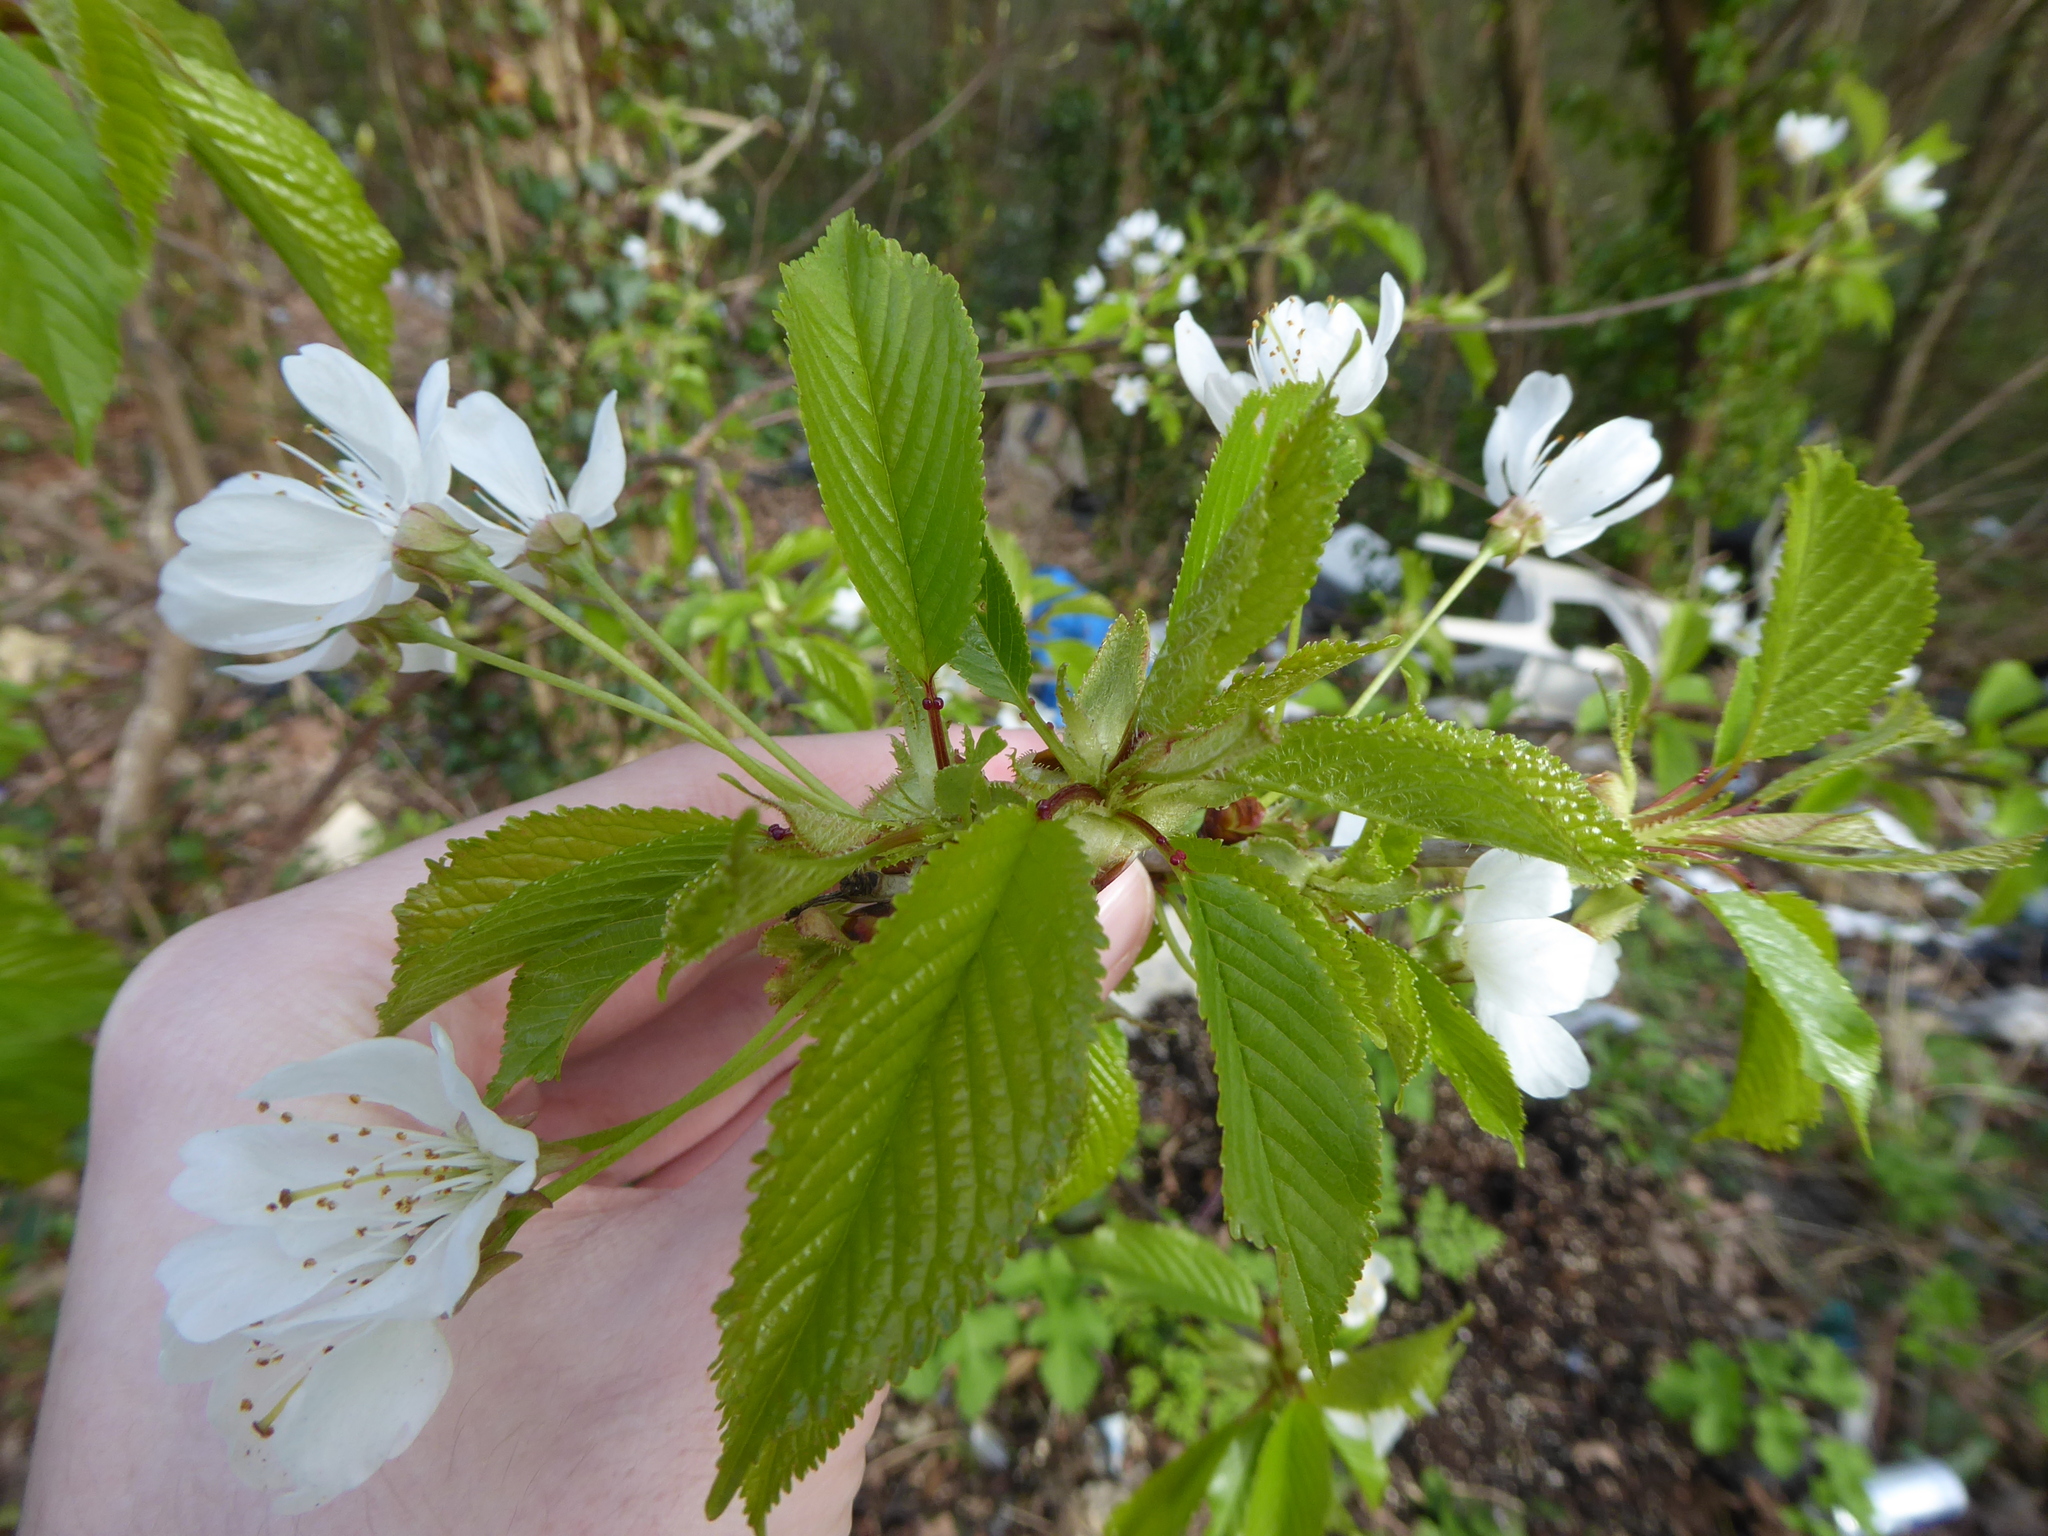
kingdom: Plantae
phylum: Tracheophyta
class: Magnoliopsida
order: Rosales
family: Rosaceae
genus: Prunus
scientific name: Prunus avium
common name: Sweet cherry
